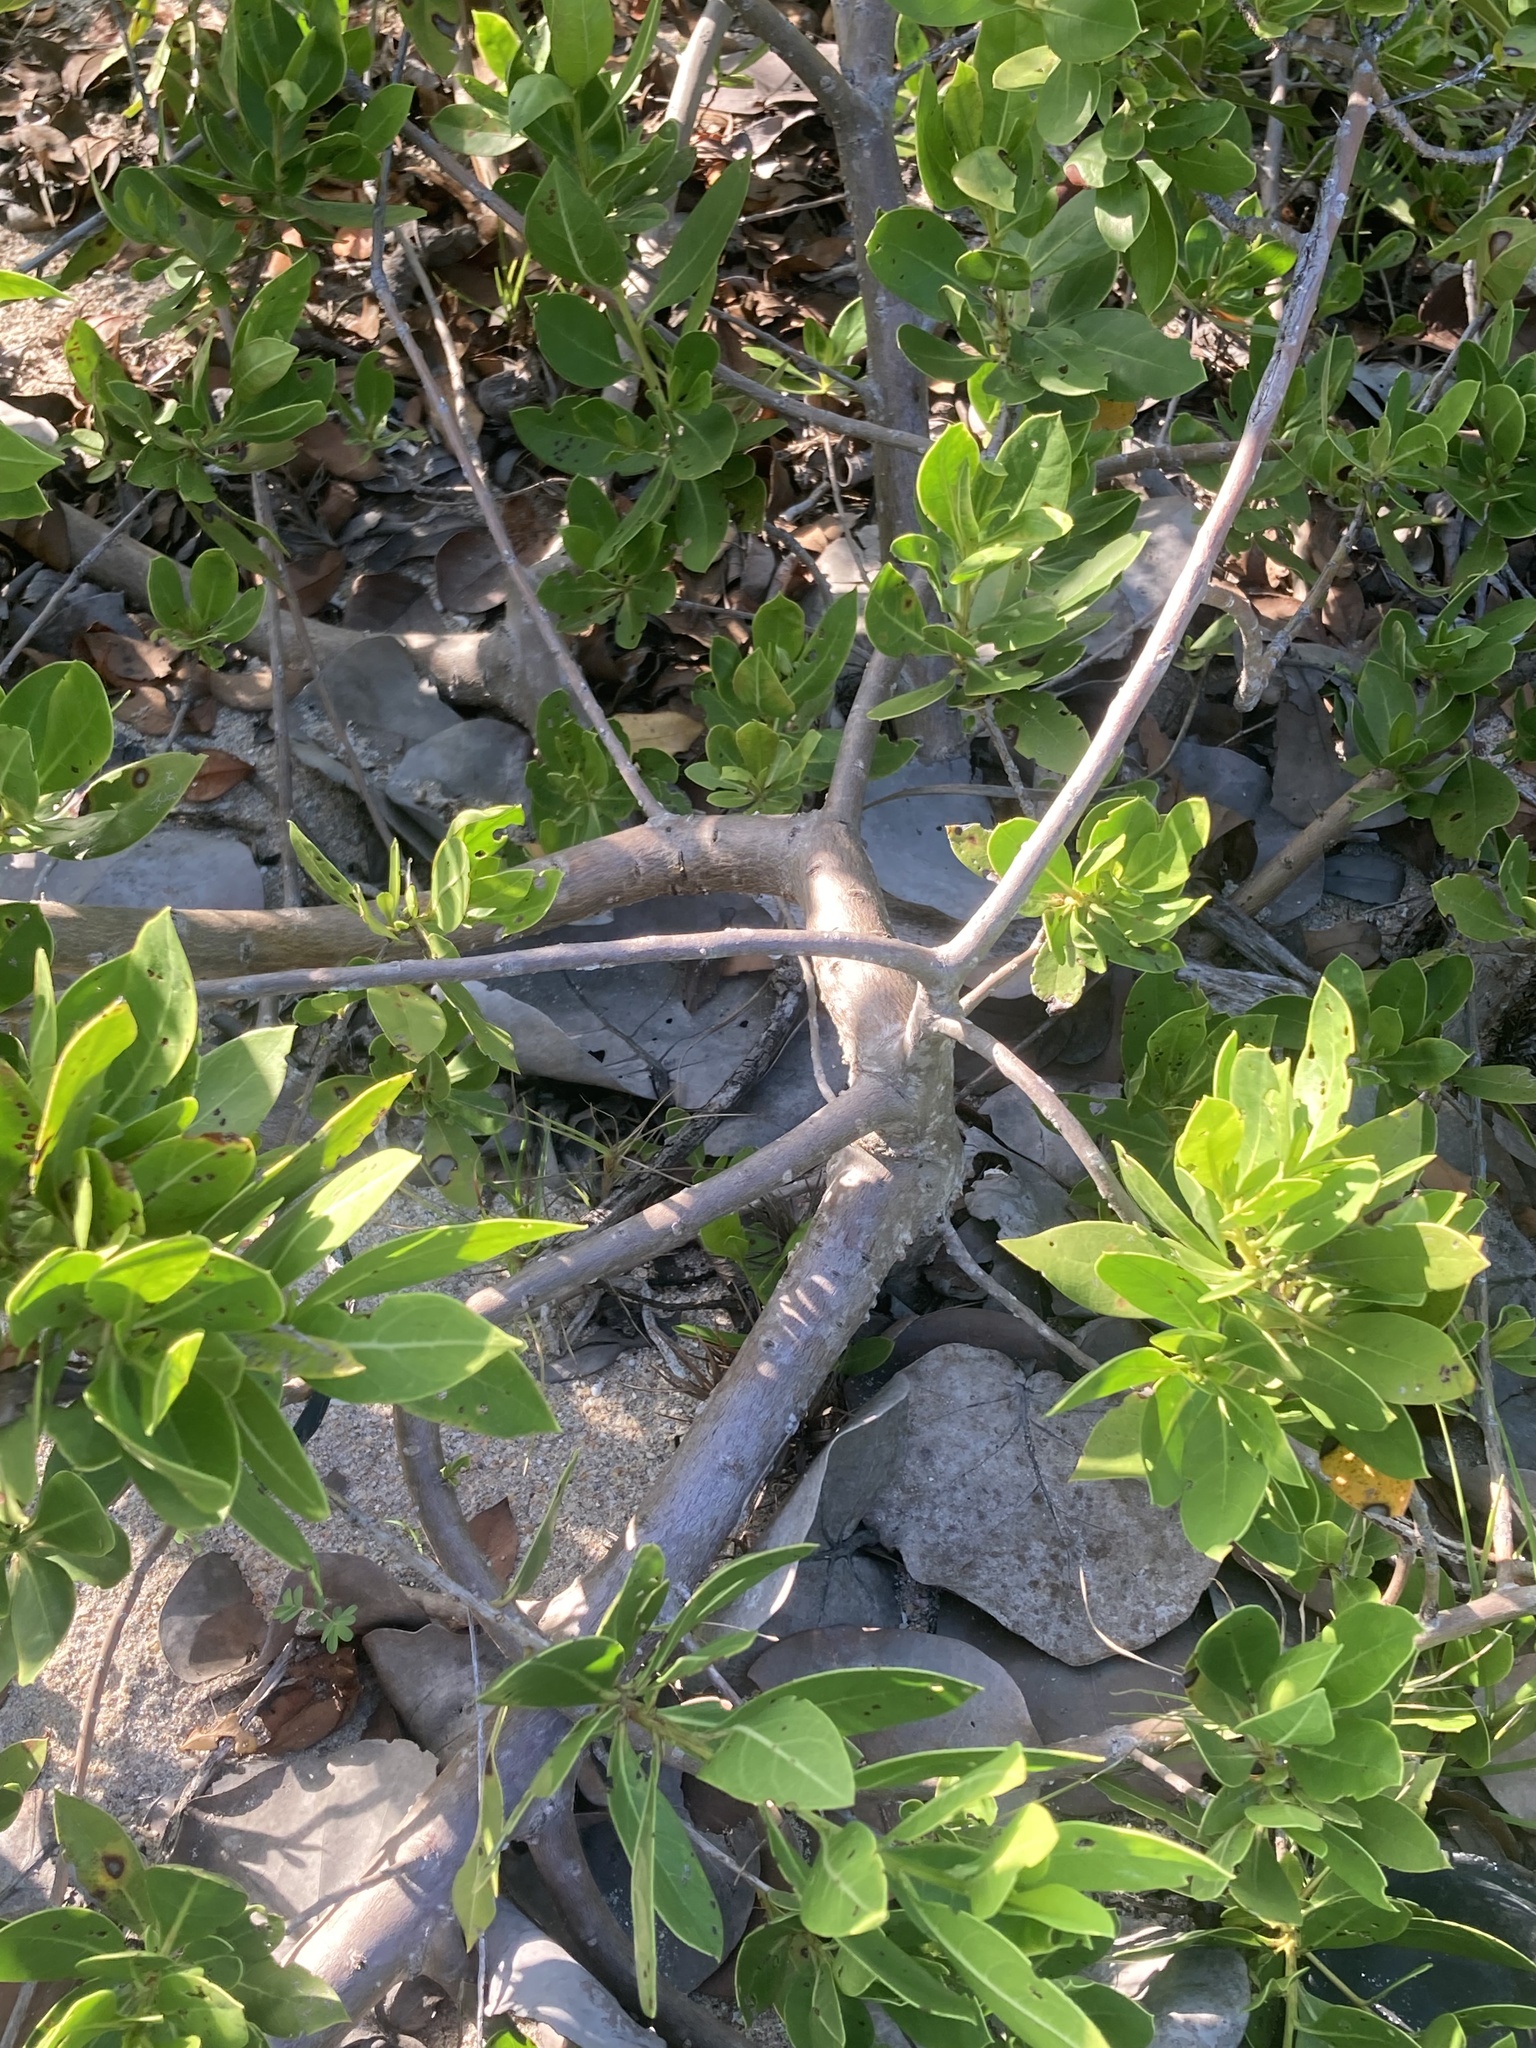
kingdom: Plantae
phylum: Tracheophyta
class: Magnoliopsida
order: Myrtales
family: Combretaceae
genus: Conocarpus
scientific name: Conocarpus erectus
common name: Button mangrove
